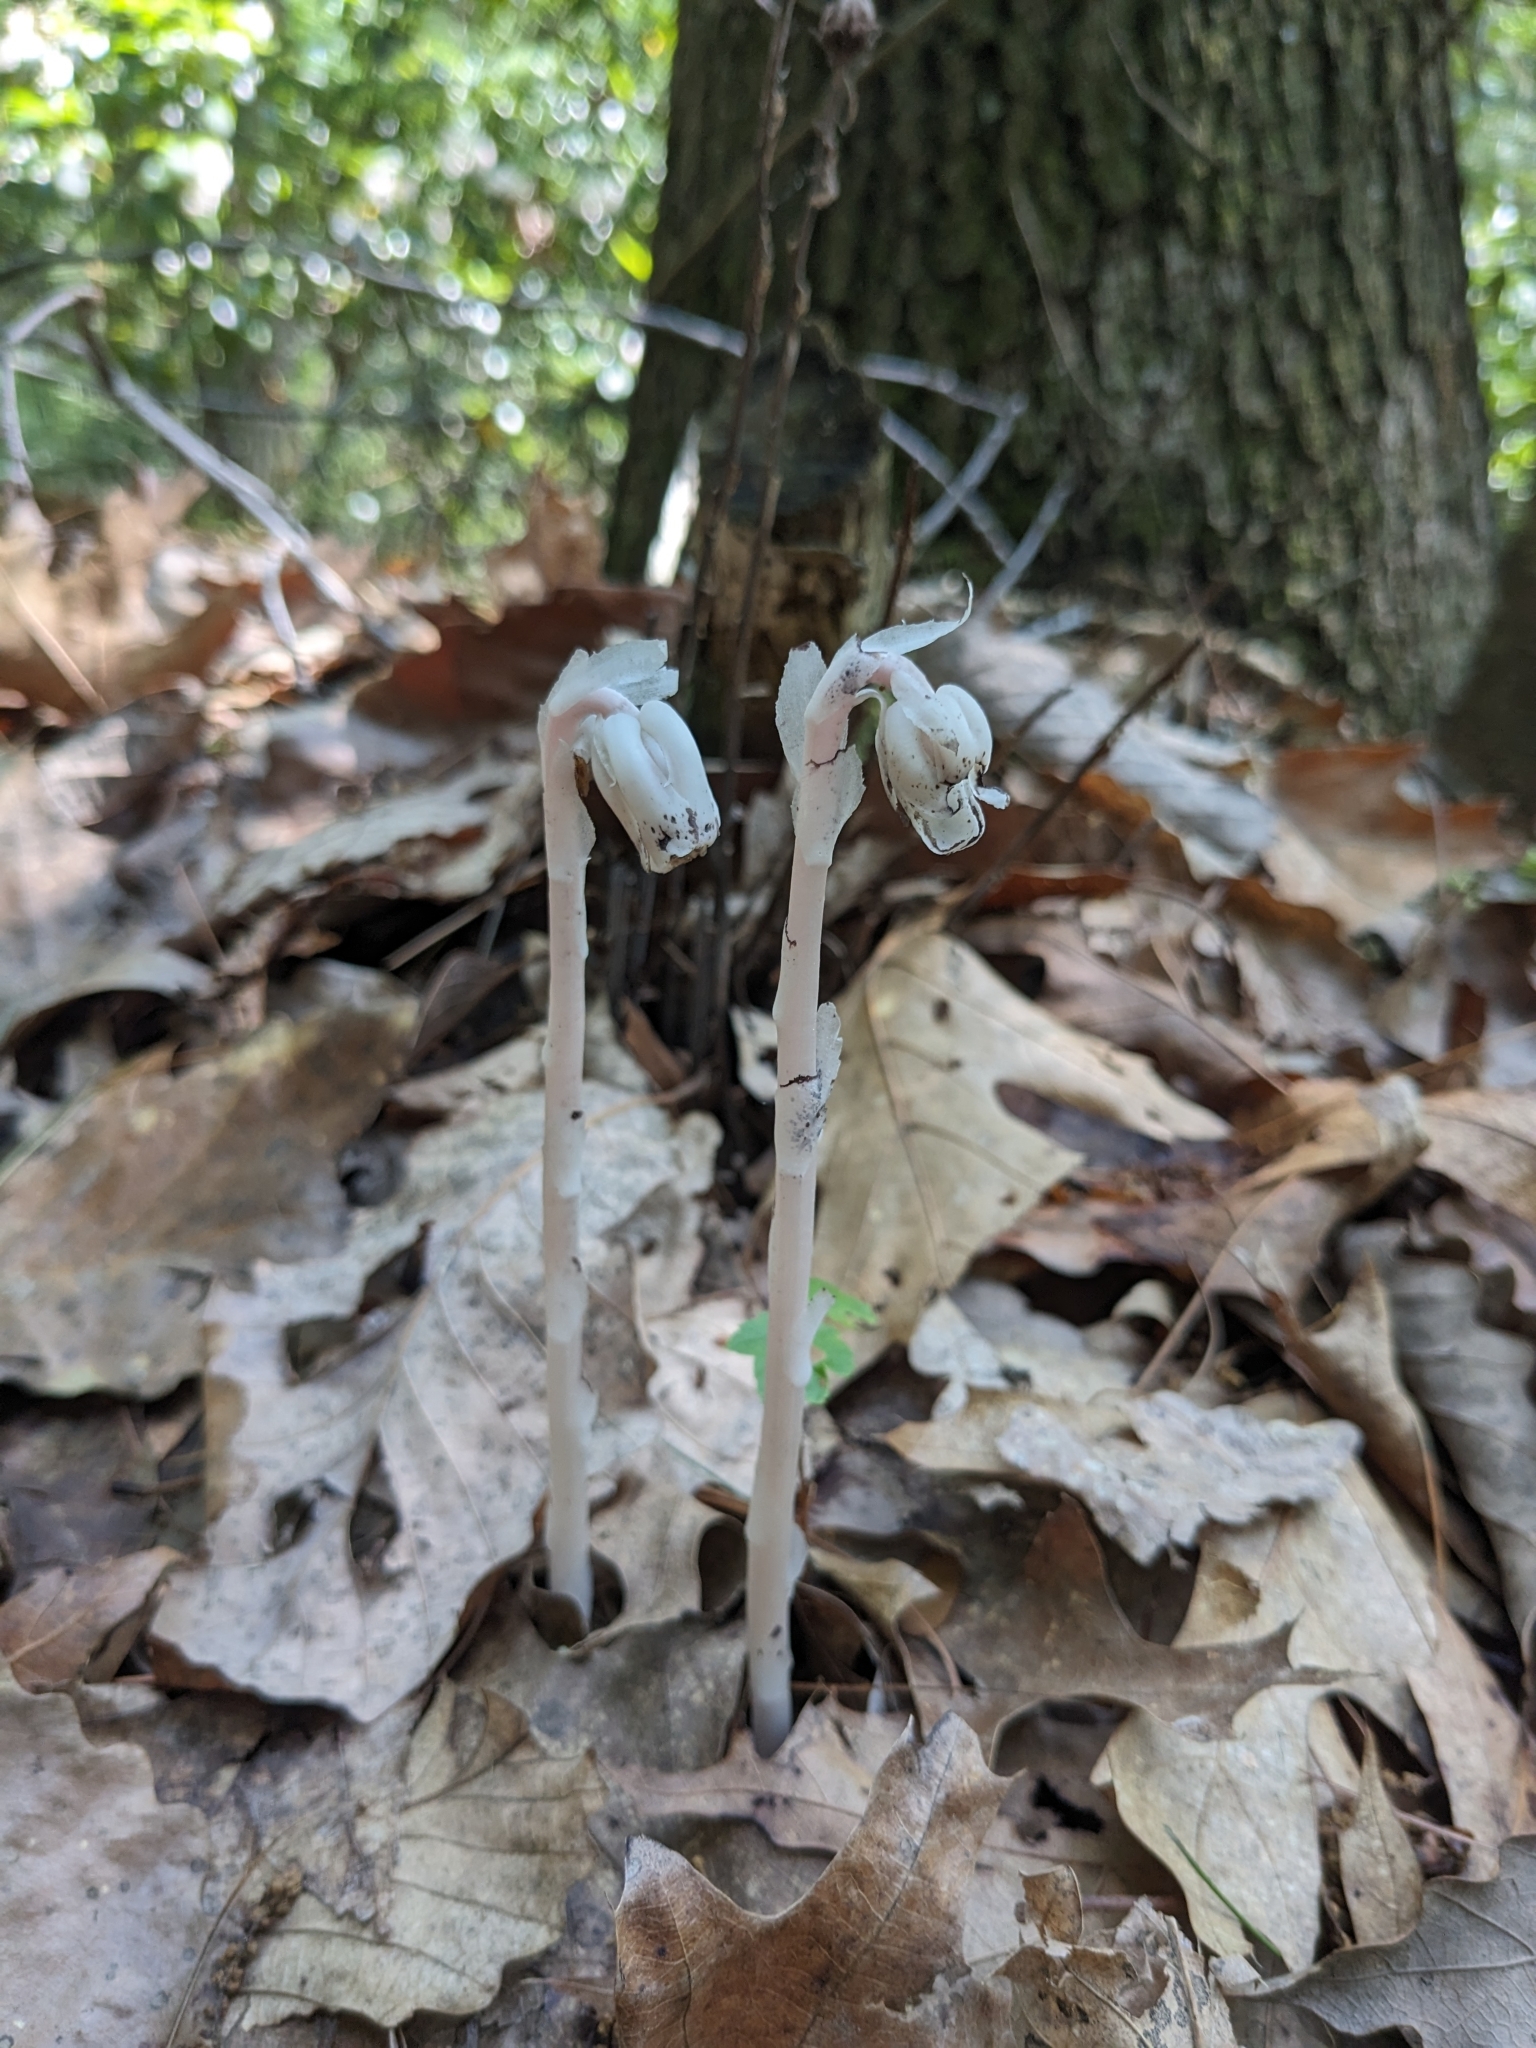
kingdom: Plantae
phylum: Tracheophyta
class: Magnoliopsida
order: Ericales
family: Ericaceae
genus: Monotropa
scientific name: Monotropa uniflora
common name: Convulsion root
